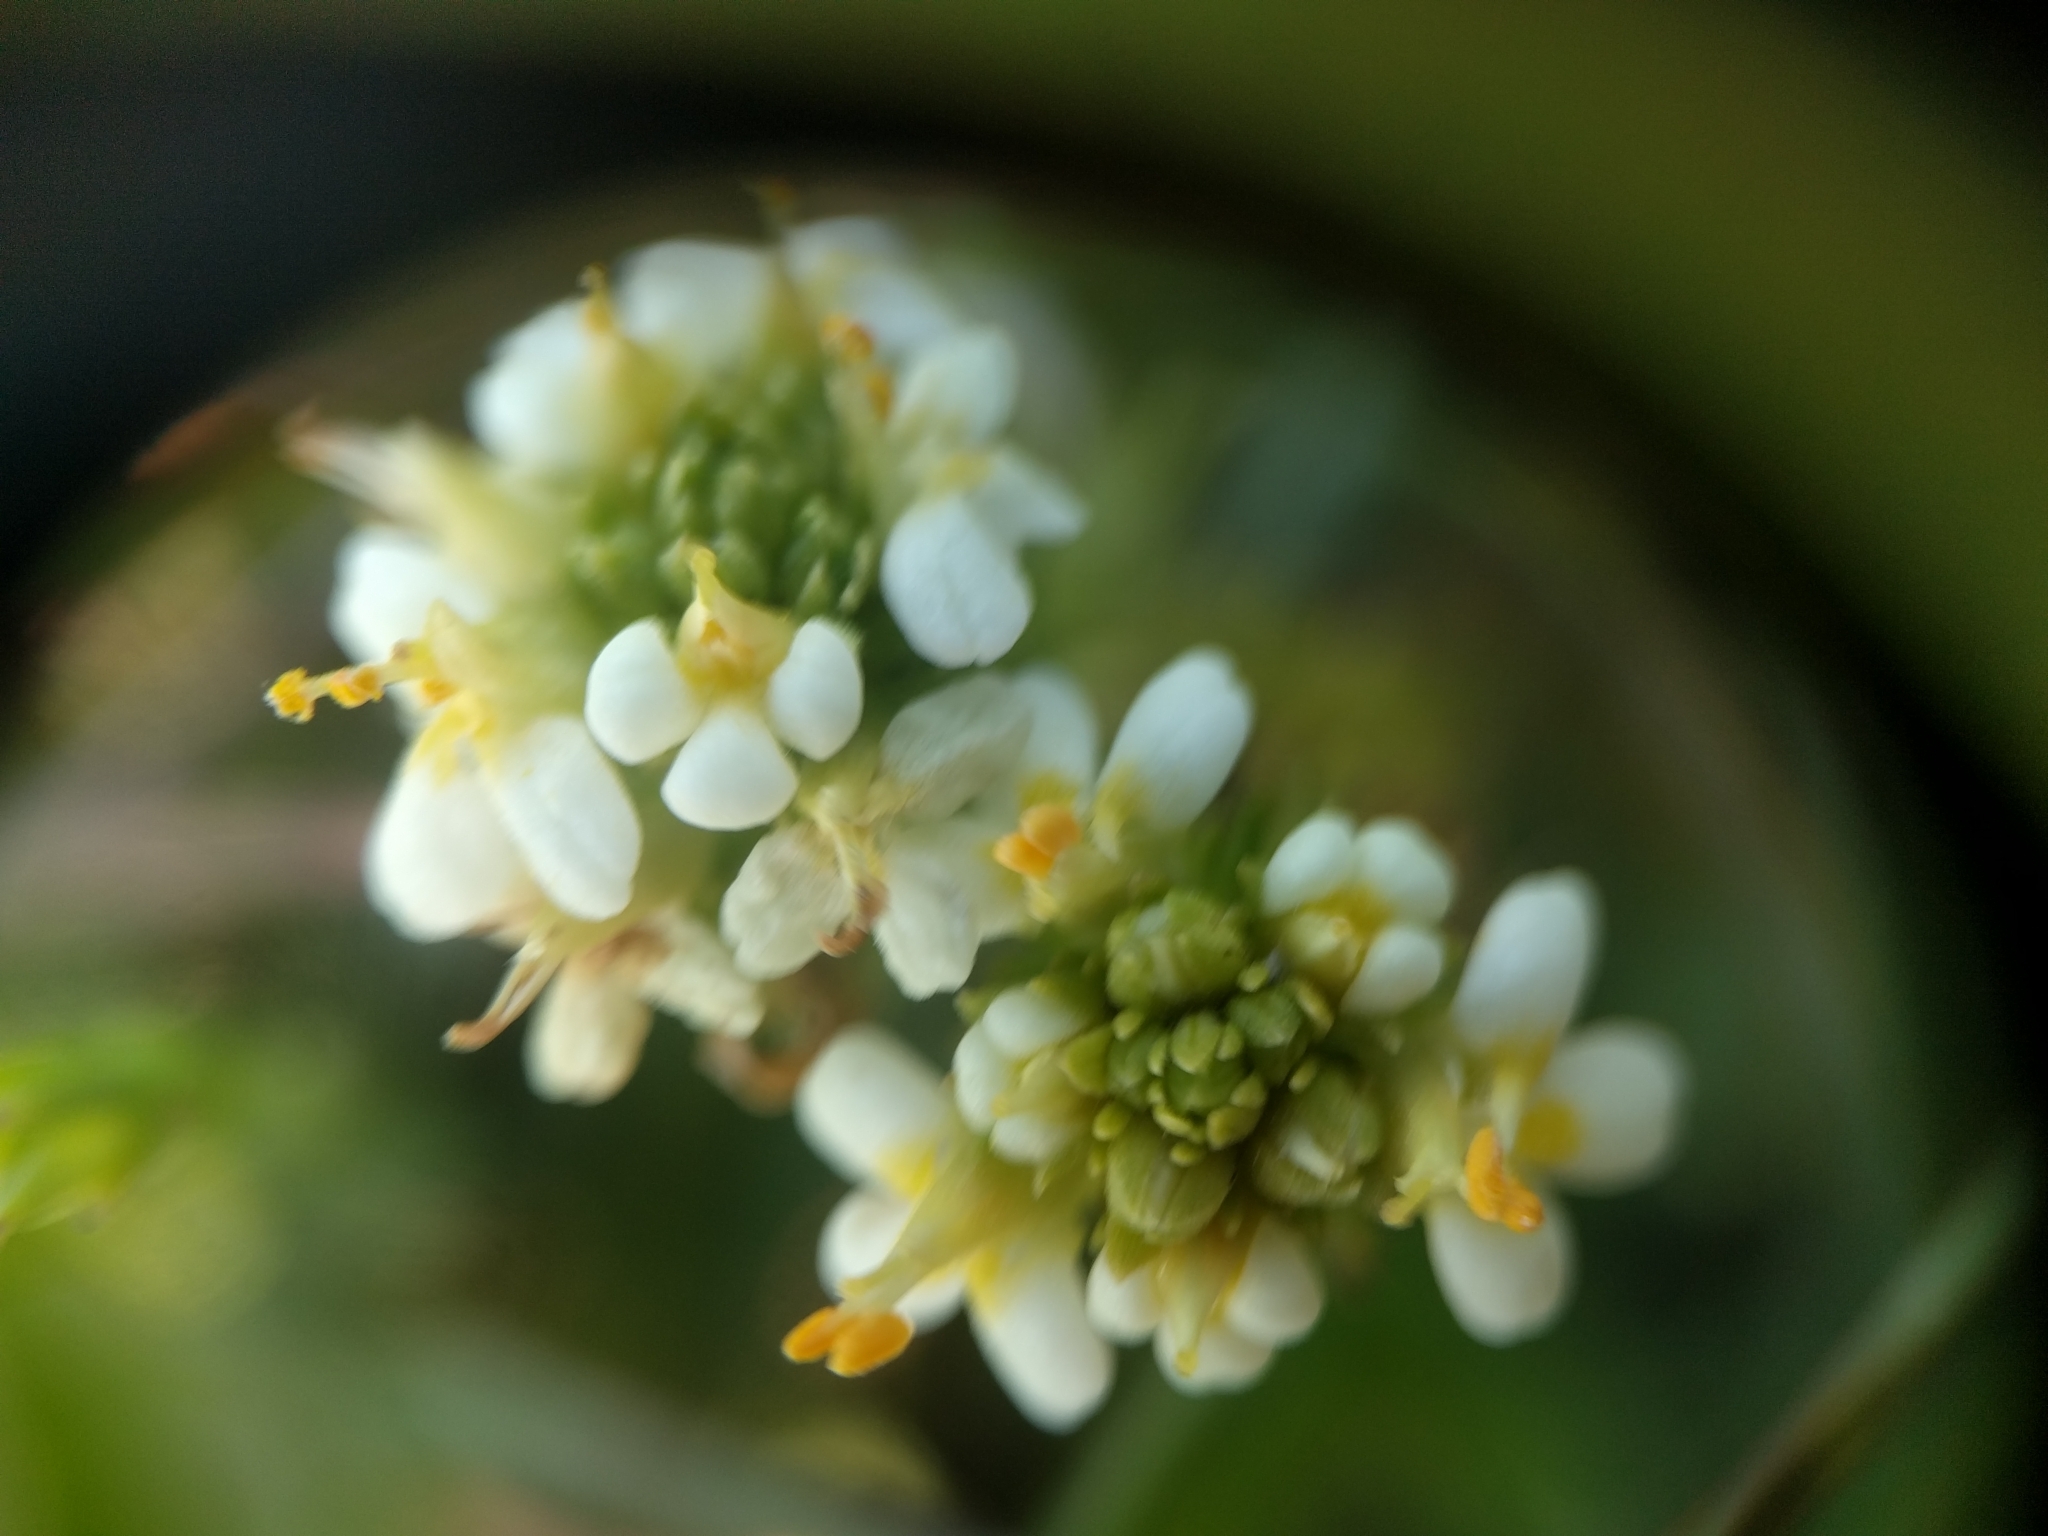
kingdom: Plantae
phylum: Tracheophyta
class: Magnoliopsida
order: Lamiales
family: Orobanchaceae
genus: Triphysaria
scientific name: Triphysaria floribunda
